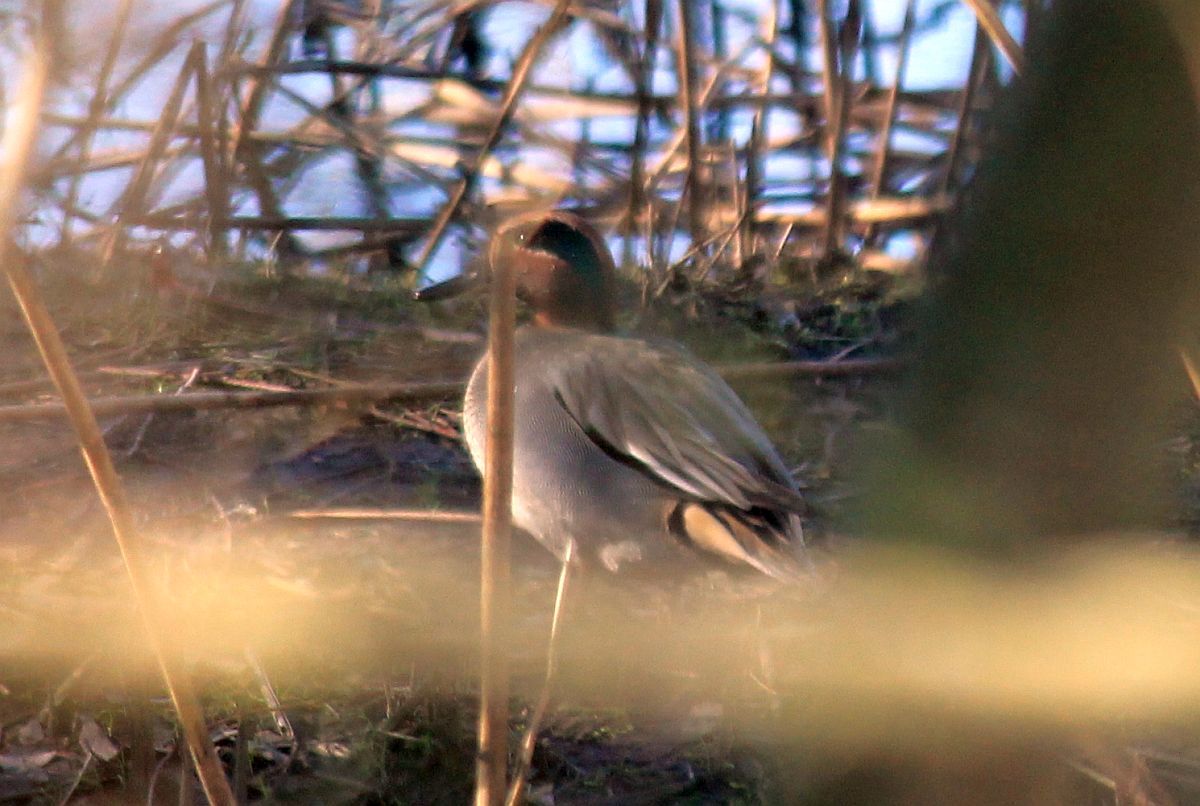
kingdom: Animalia
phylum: Chordata
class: Aves
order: Anseriformes
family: Anatidae
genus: Anas
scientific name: Anas crecca
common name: Eurasian teal
